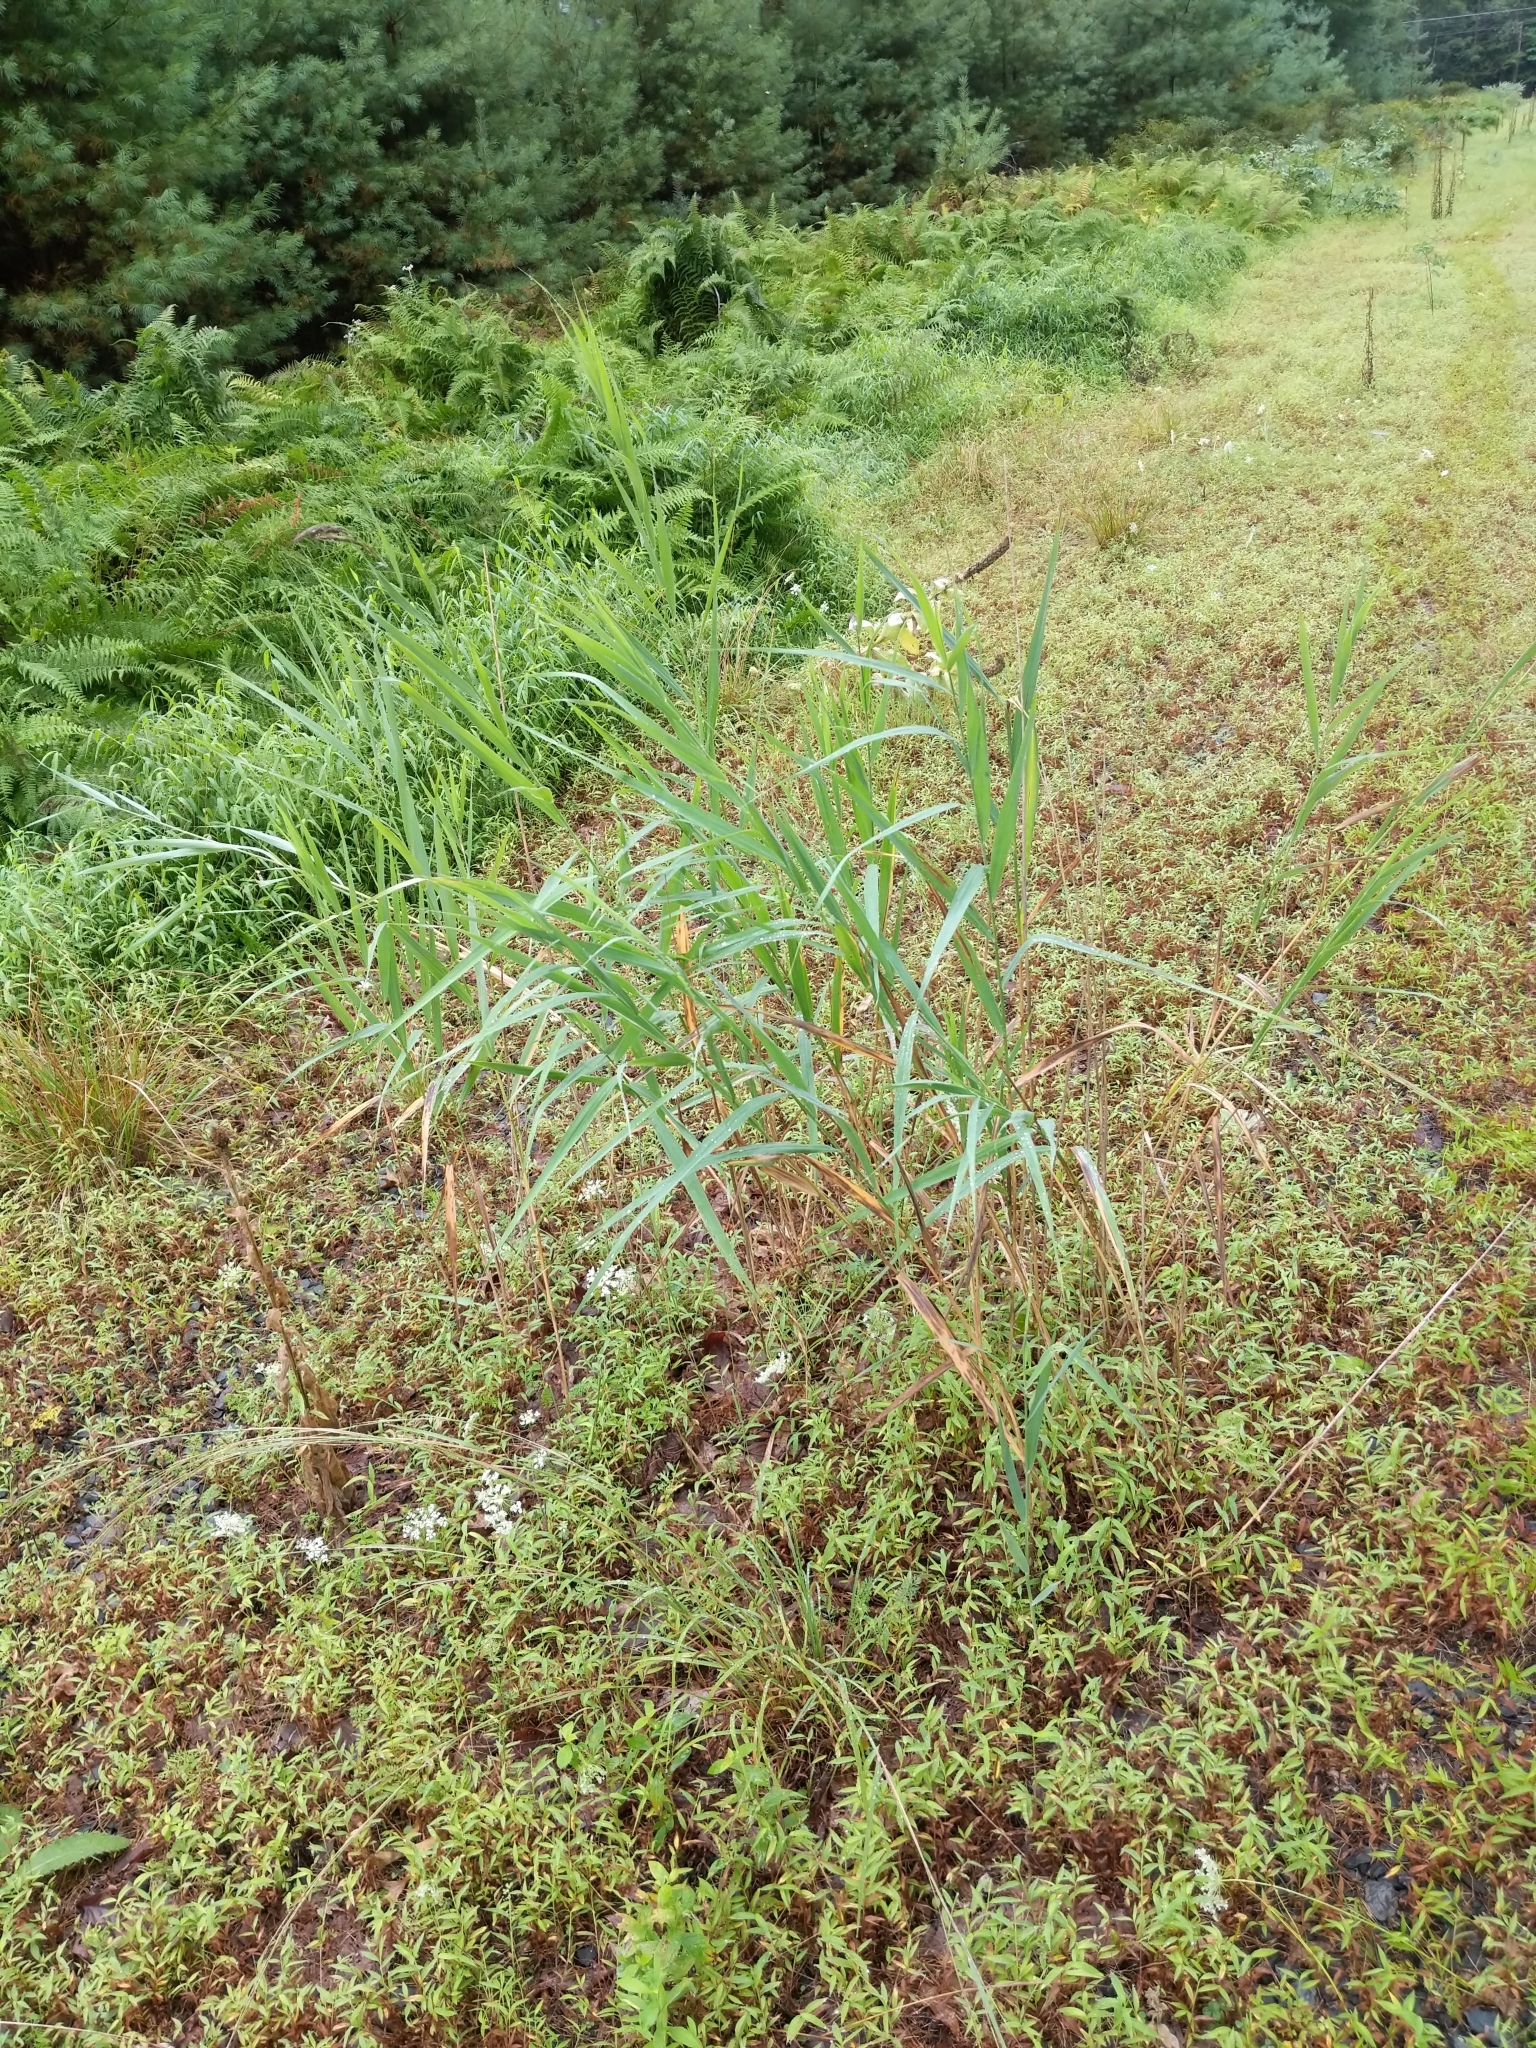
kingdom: Plantae
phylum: Tracheophyta
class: Liliopsida
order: Poales
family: Poaceae
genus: Phragmites
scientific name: Phragmites australis
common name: Common reed
